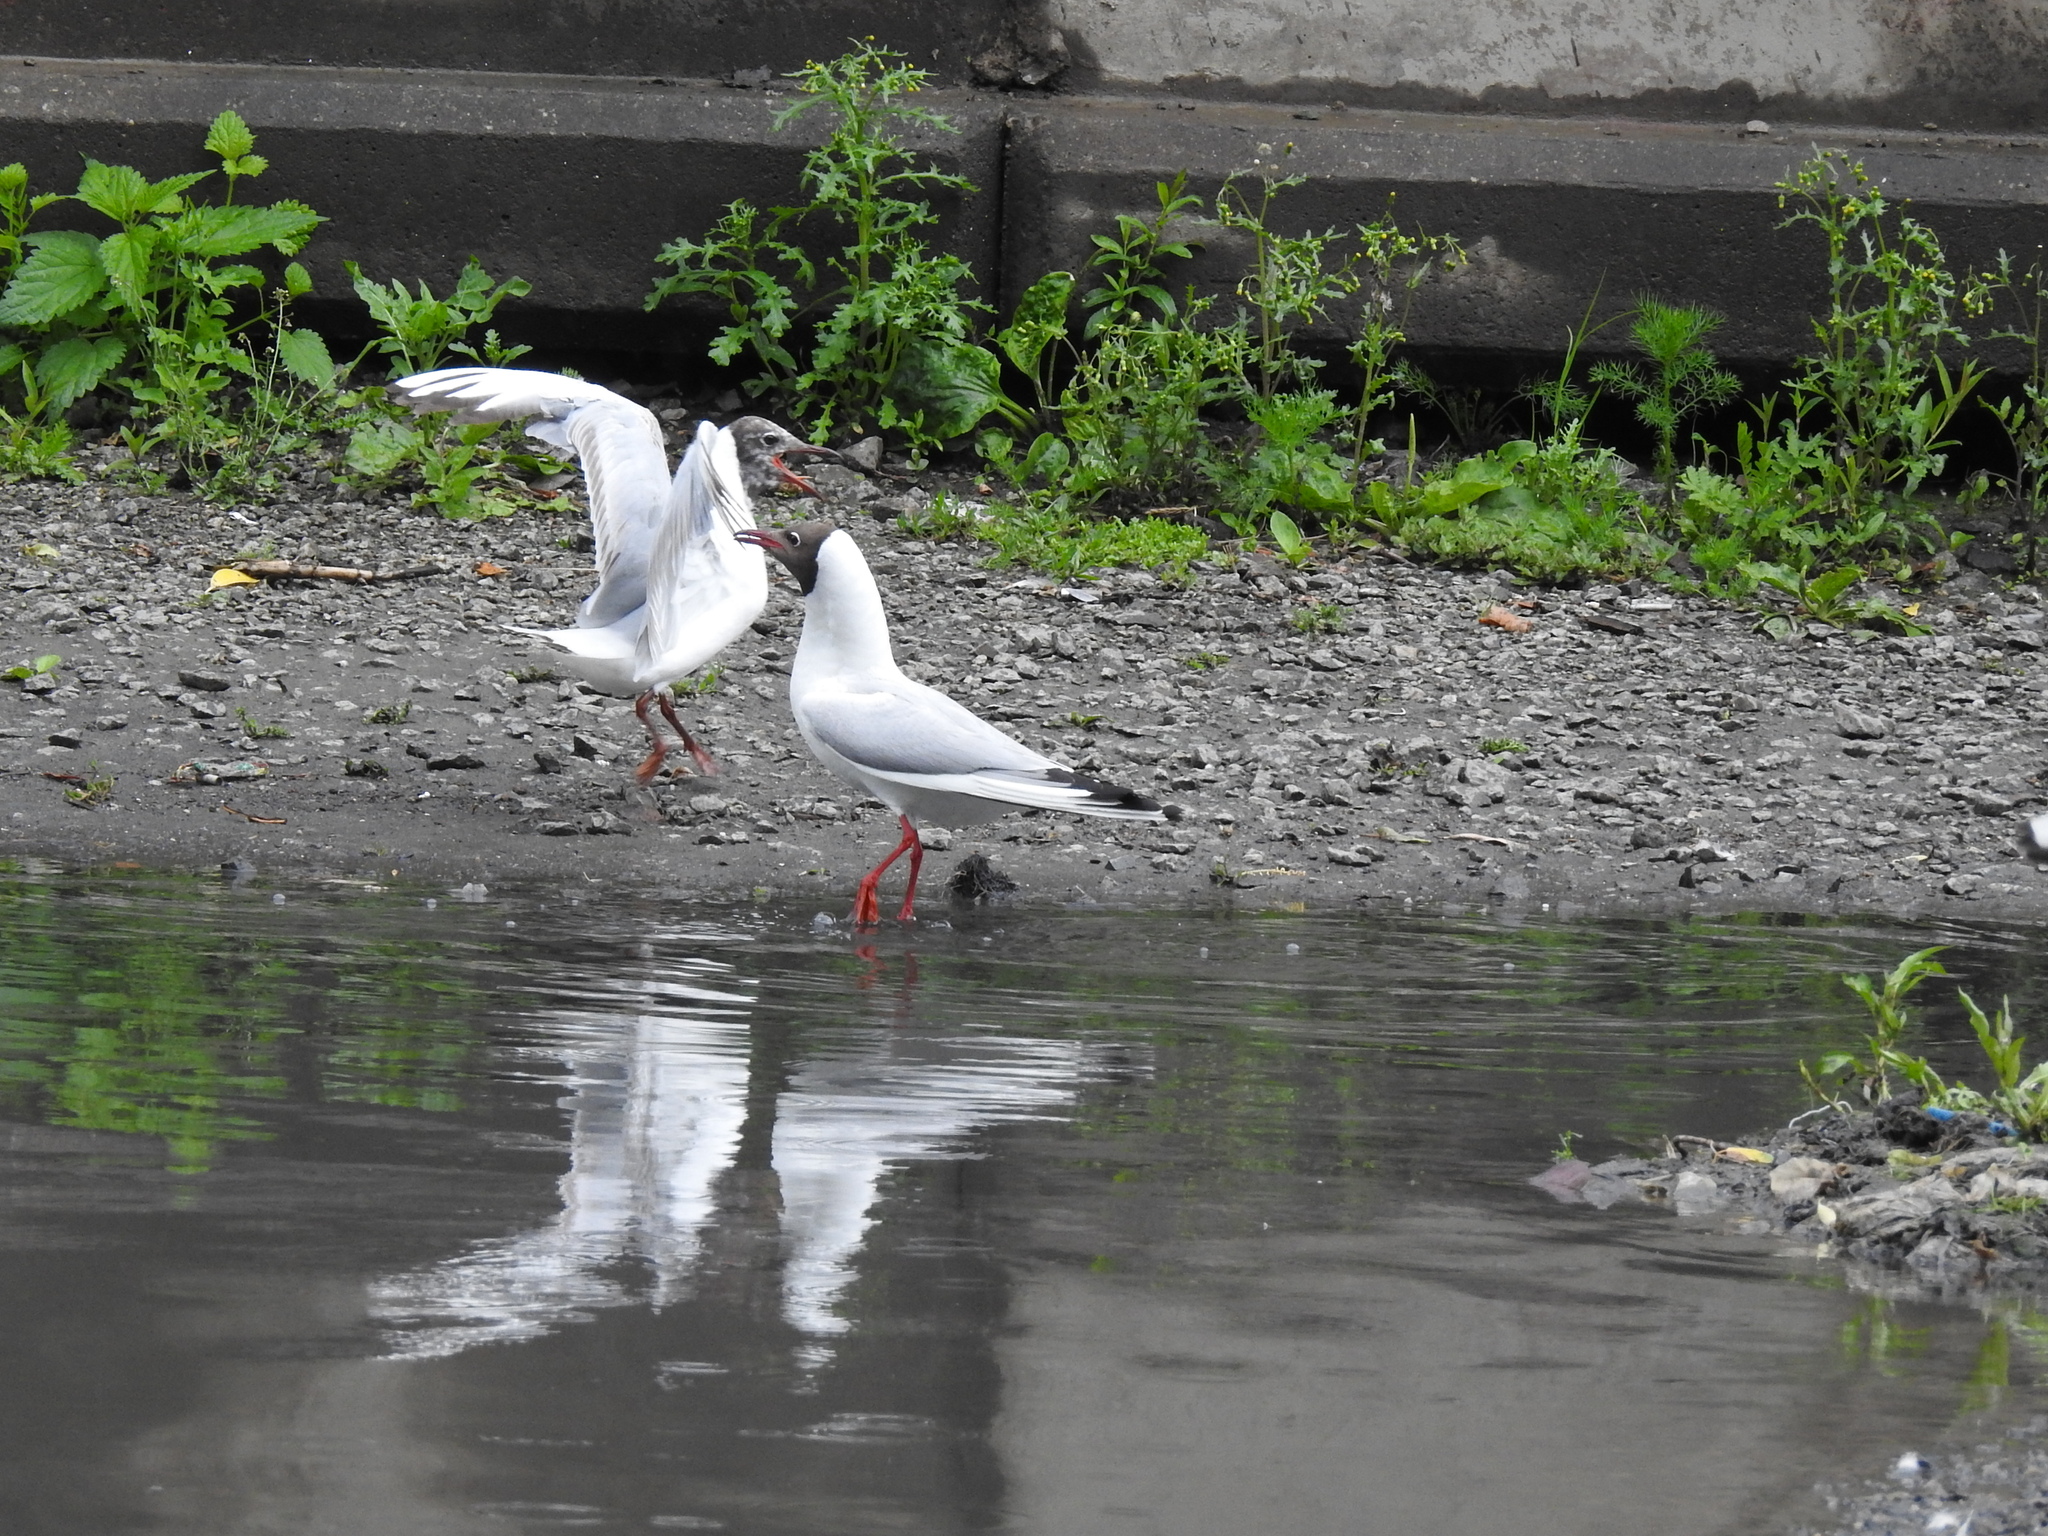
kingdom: Animalia
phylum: Chordata
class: Aves
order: Charadriiformes
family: Laridae
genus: Chroicocephalus
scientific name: Chroicocephalus ridibundus
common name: Black-headed gull
